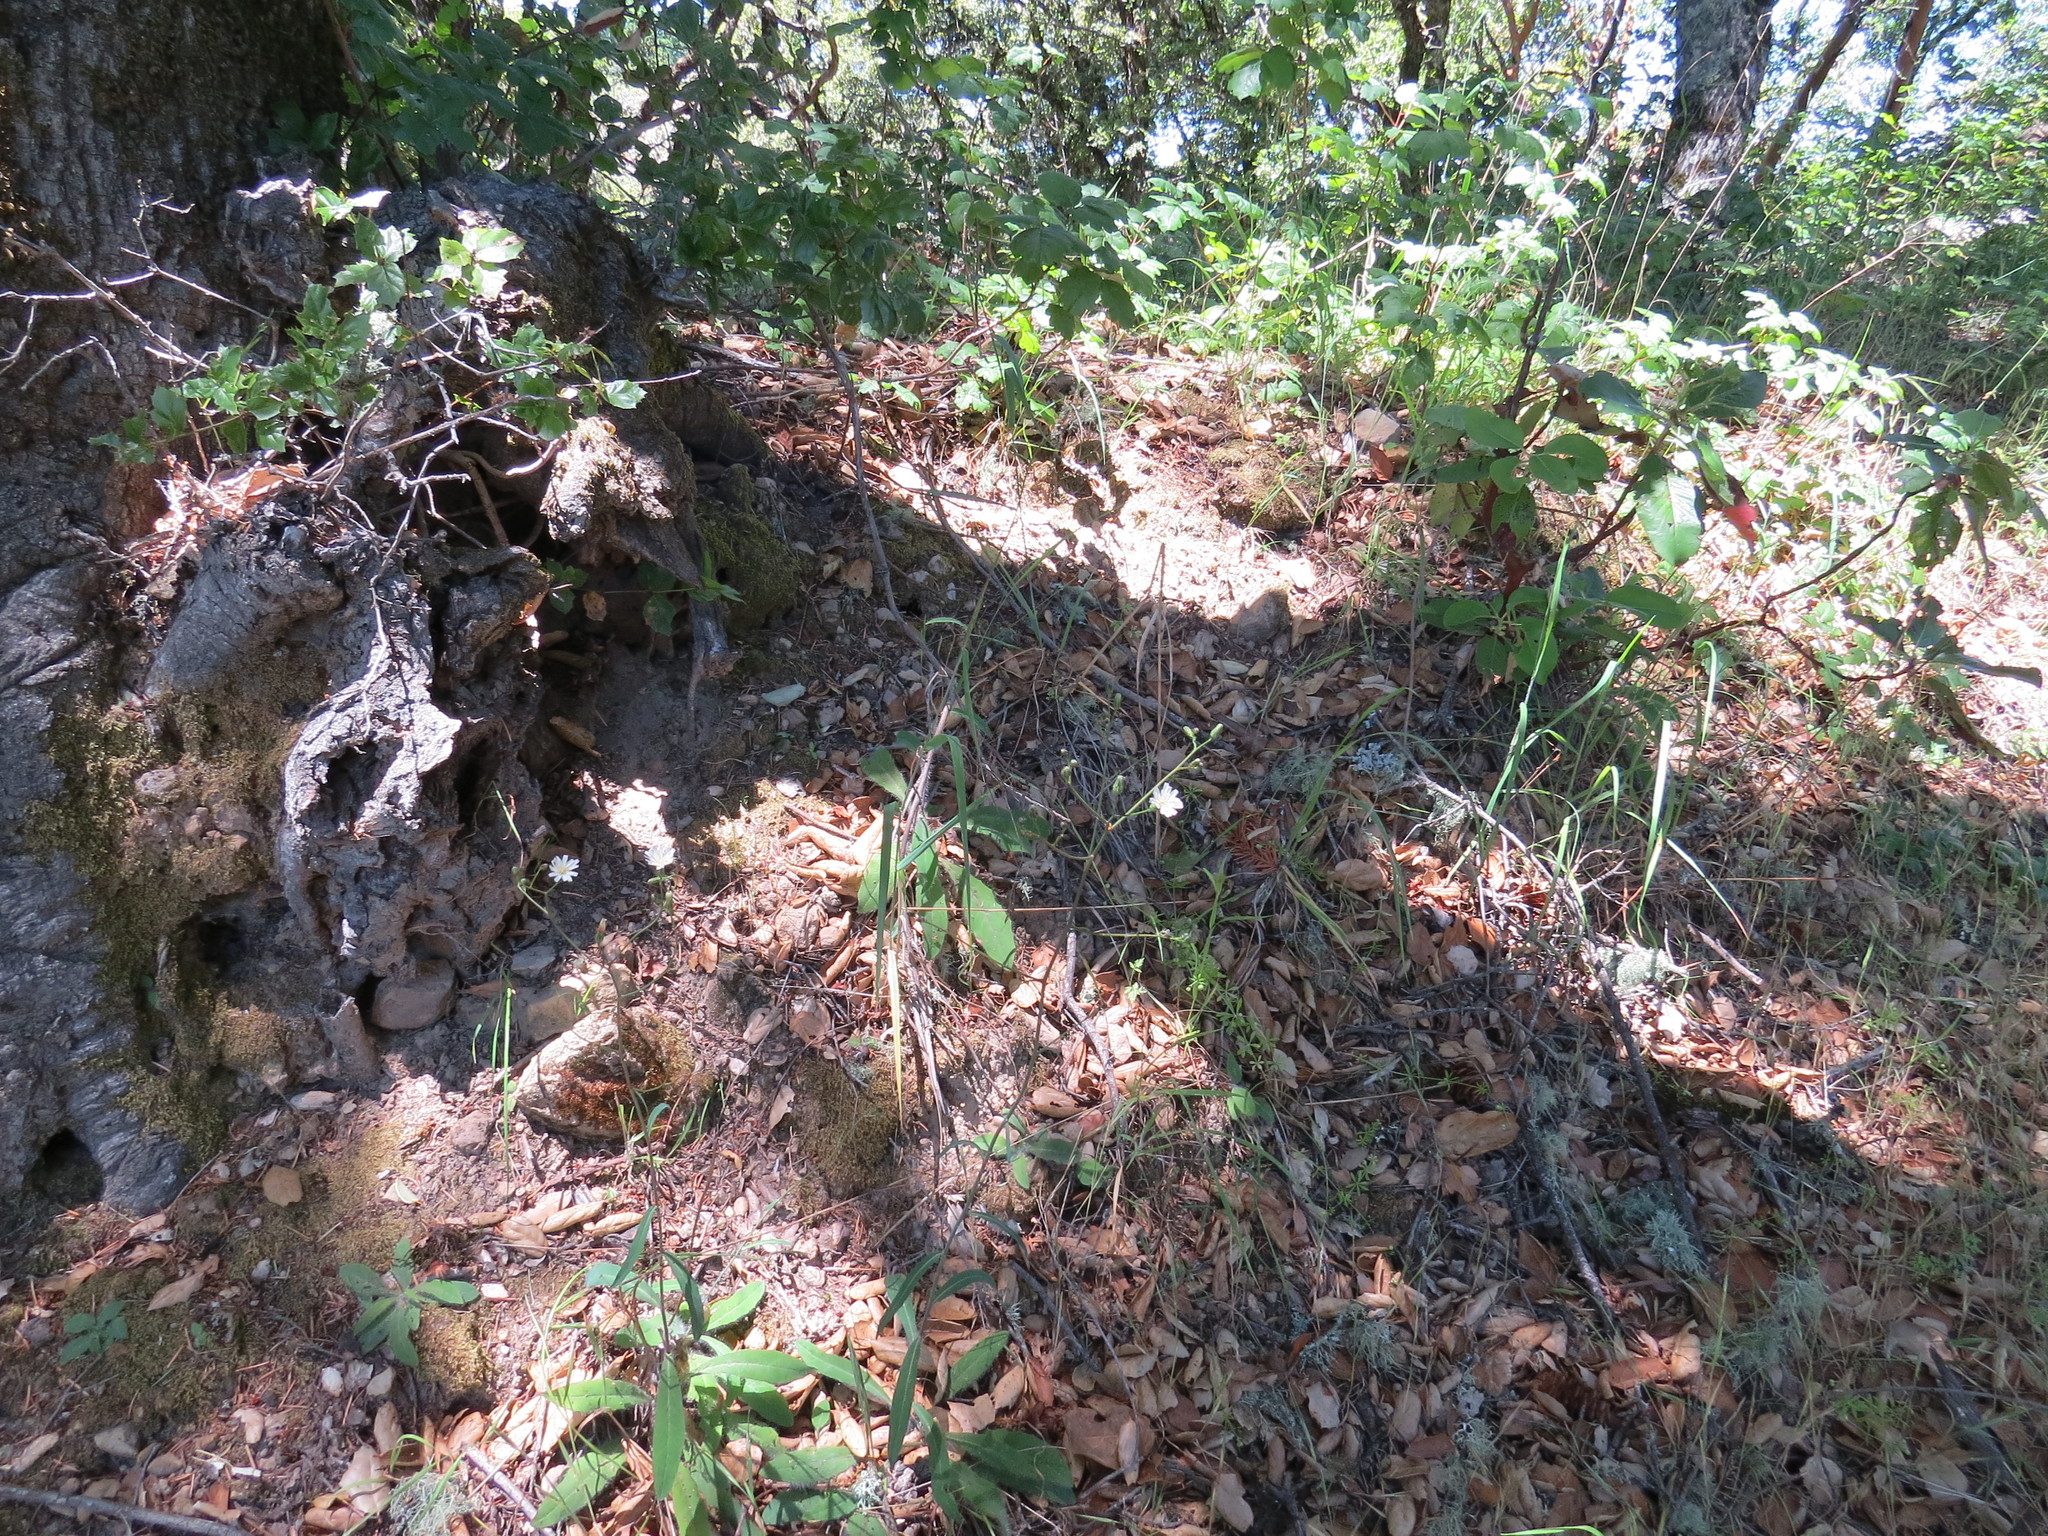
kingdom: Plantae
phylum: Tracheophyta
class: Magnoliopsida
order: Asterales
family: Asteraceae
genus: Hieracium
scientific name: Hieracium albiflorum
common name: White hawkweed
